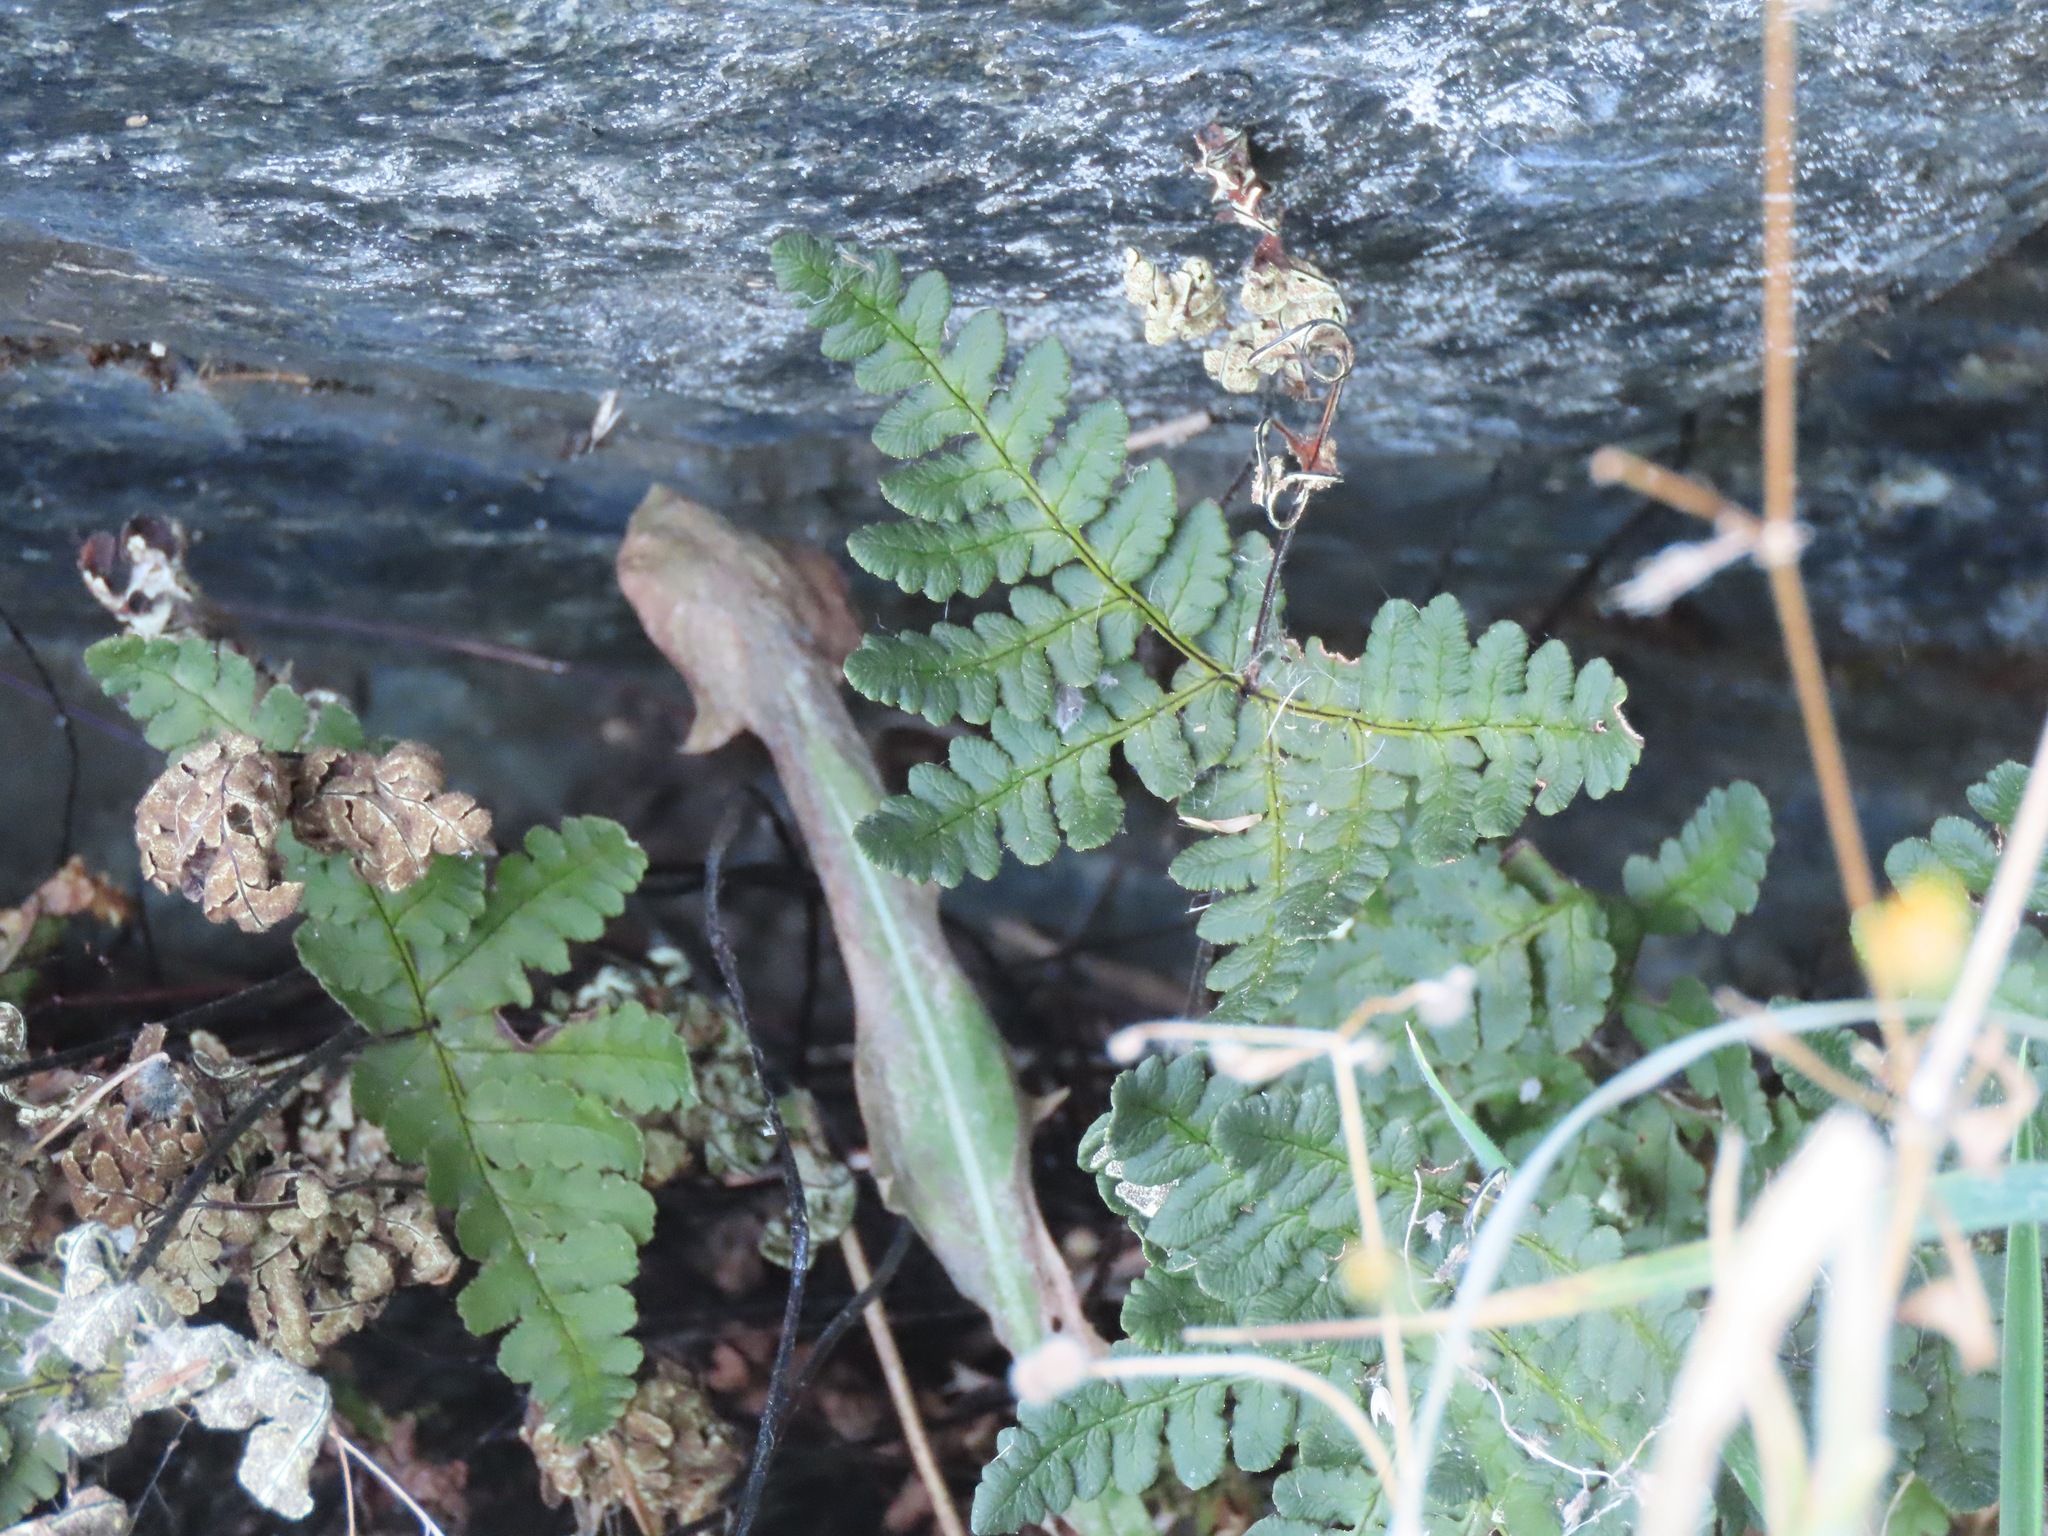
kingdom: Plantae
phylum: Tracheophyta
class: Polypodiopsida
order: Polypodiales
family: Pteridaceae
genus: Pentagramma
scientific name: Pentagramma triangularis
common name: Gold fern
